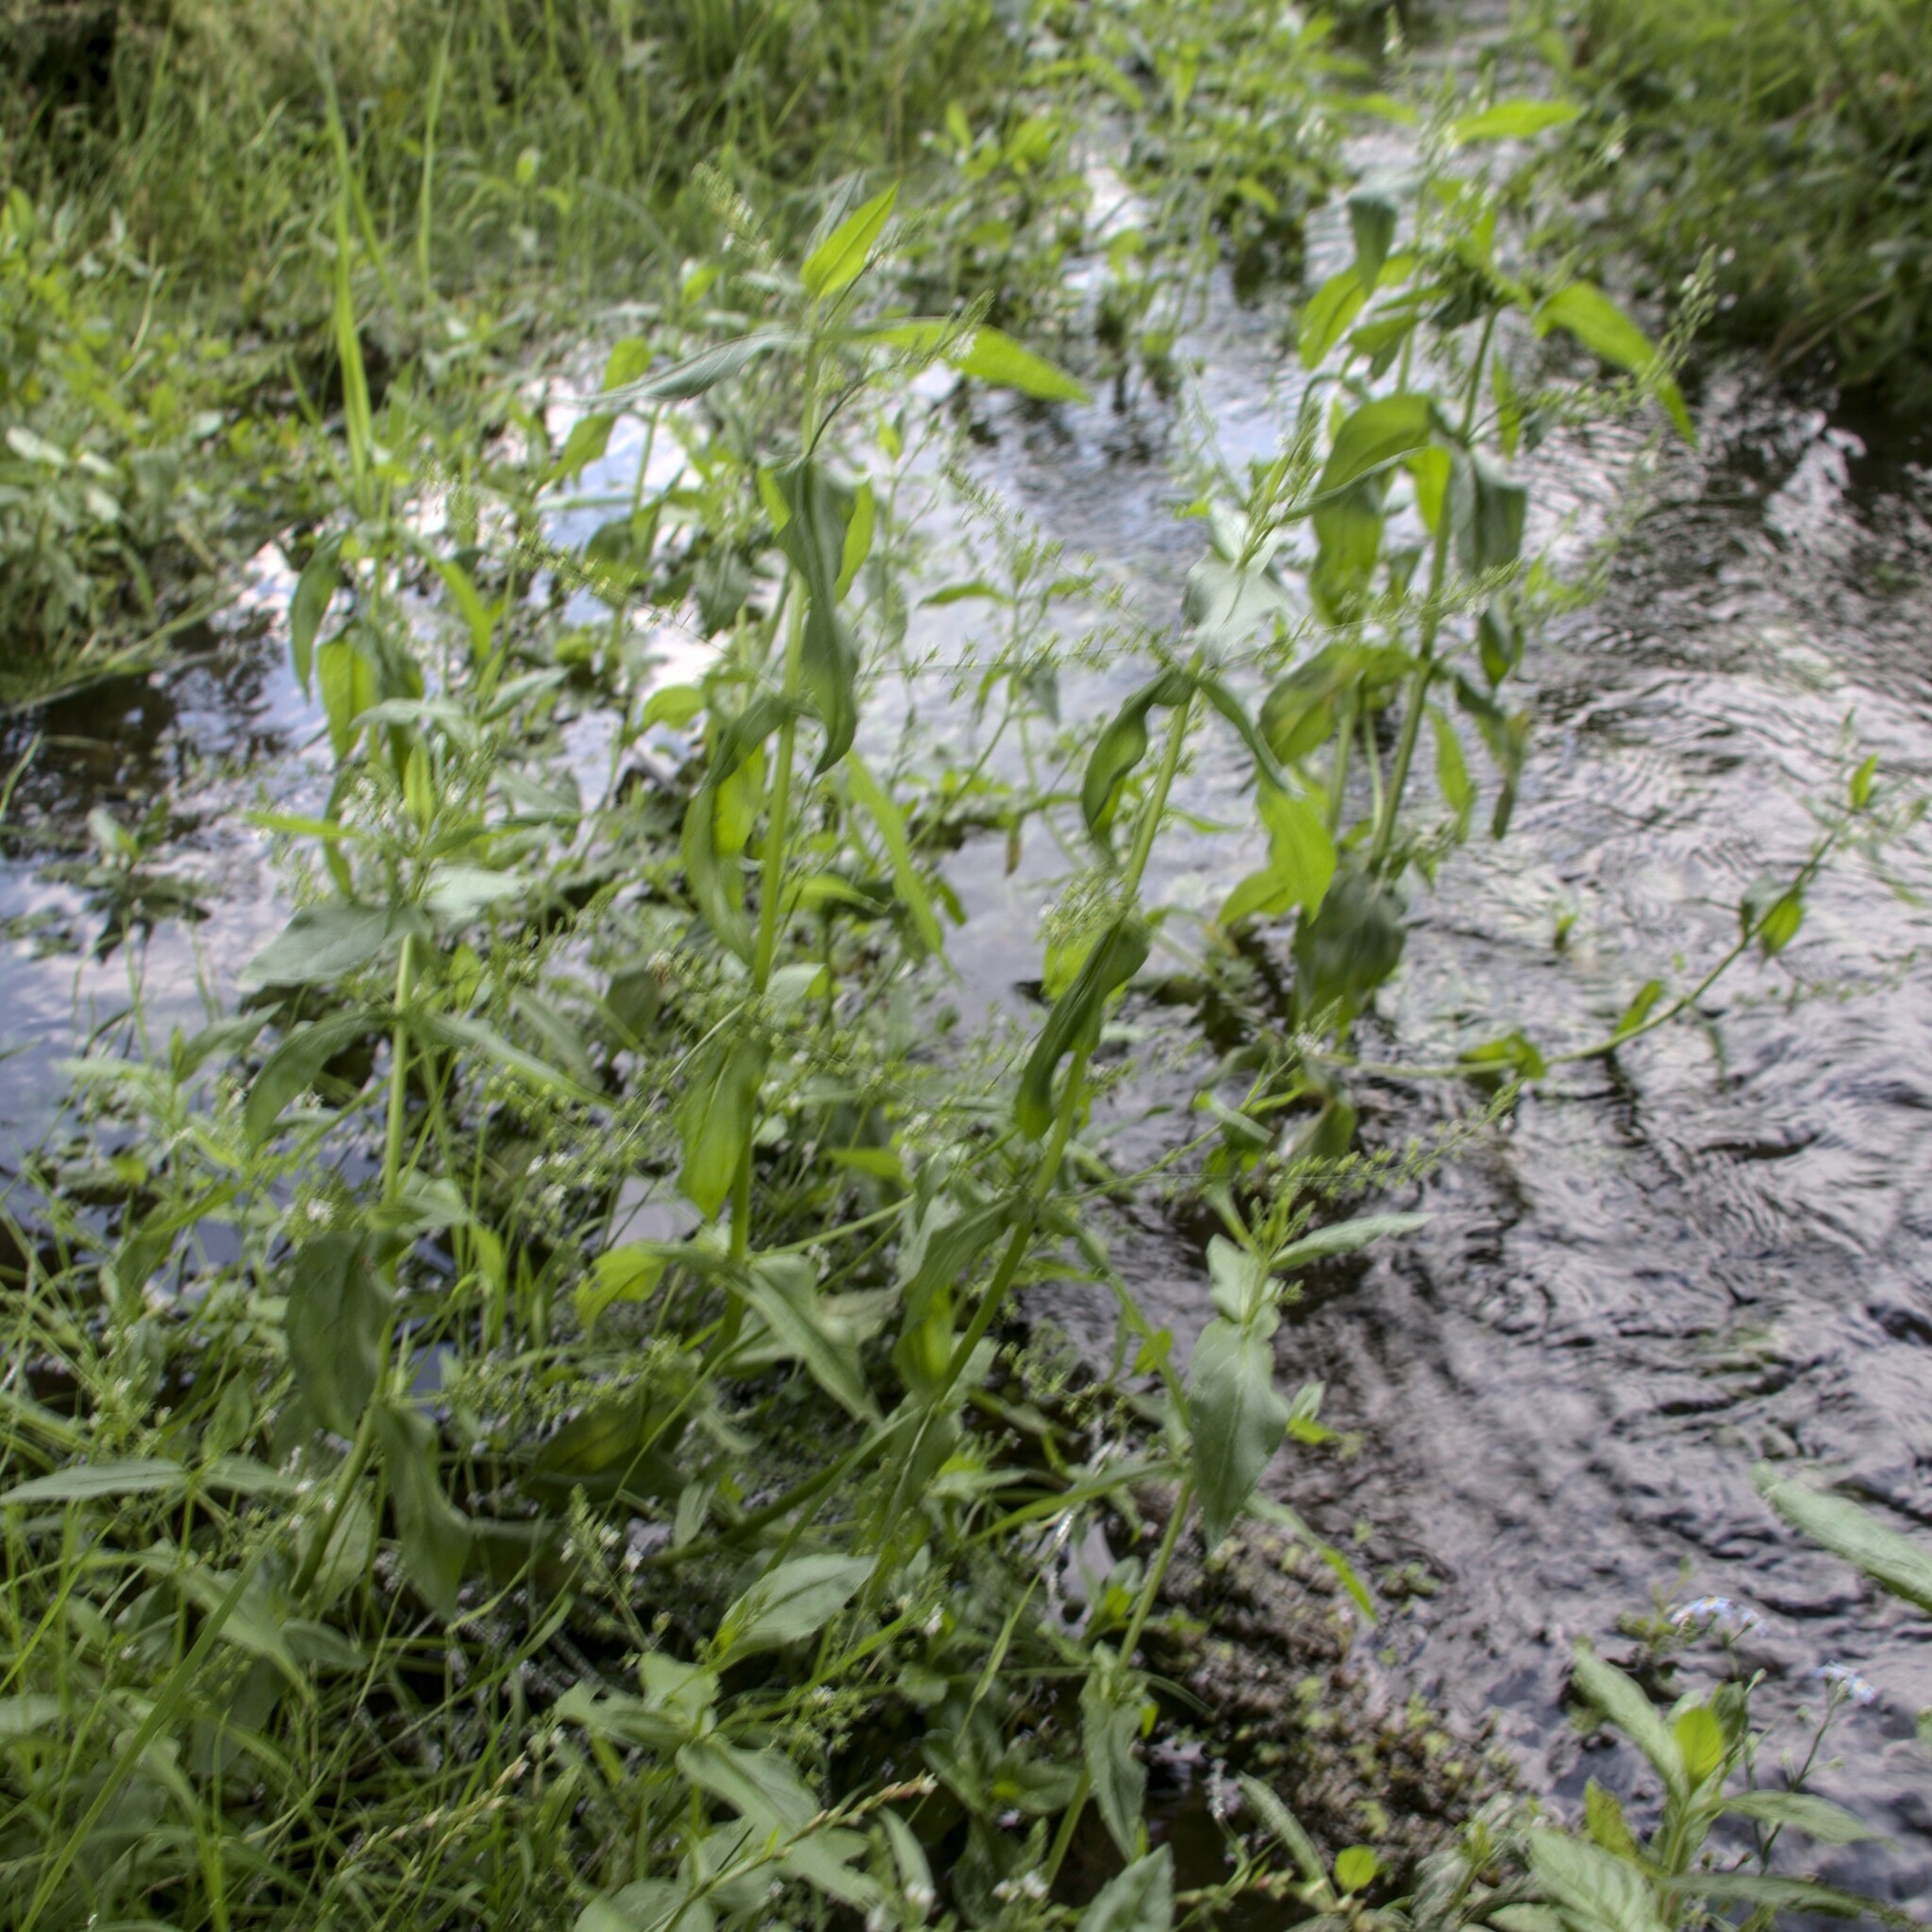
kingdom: Plantae
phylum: Tracheophyta
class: Magnoliopsida
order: Lamiales
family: Plantaginaceae
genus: Veronica
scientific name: Veronica anagallis-aquatica
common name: Water speedwell
